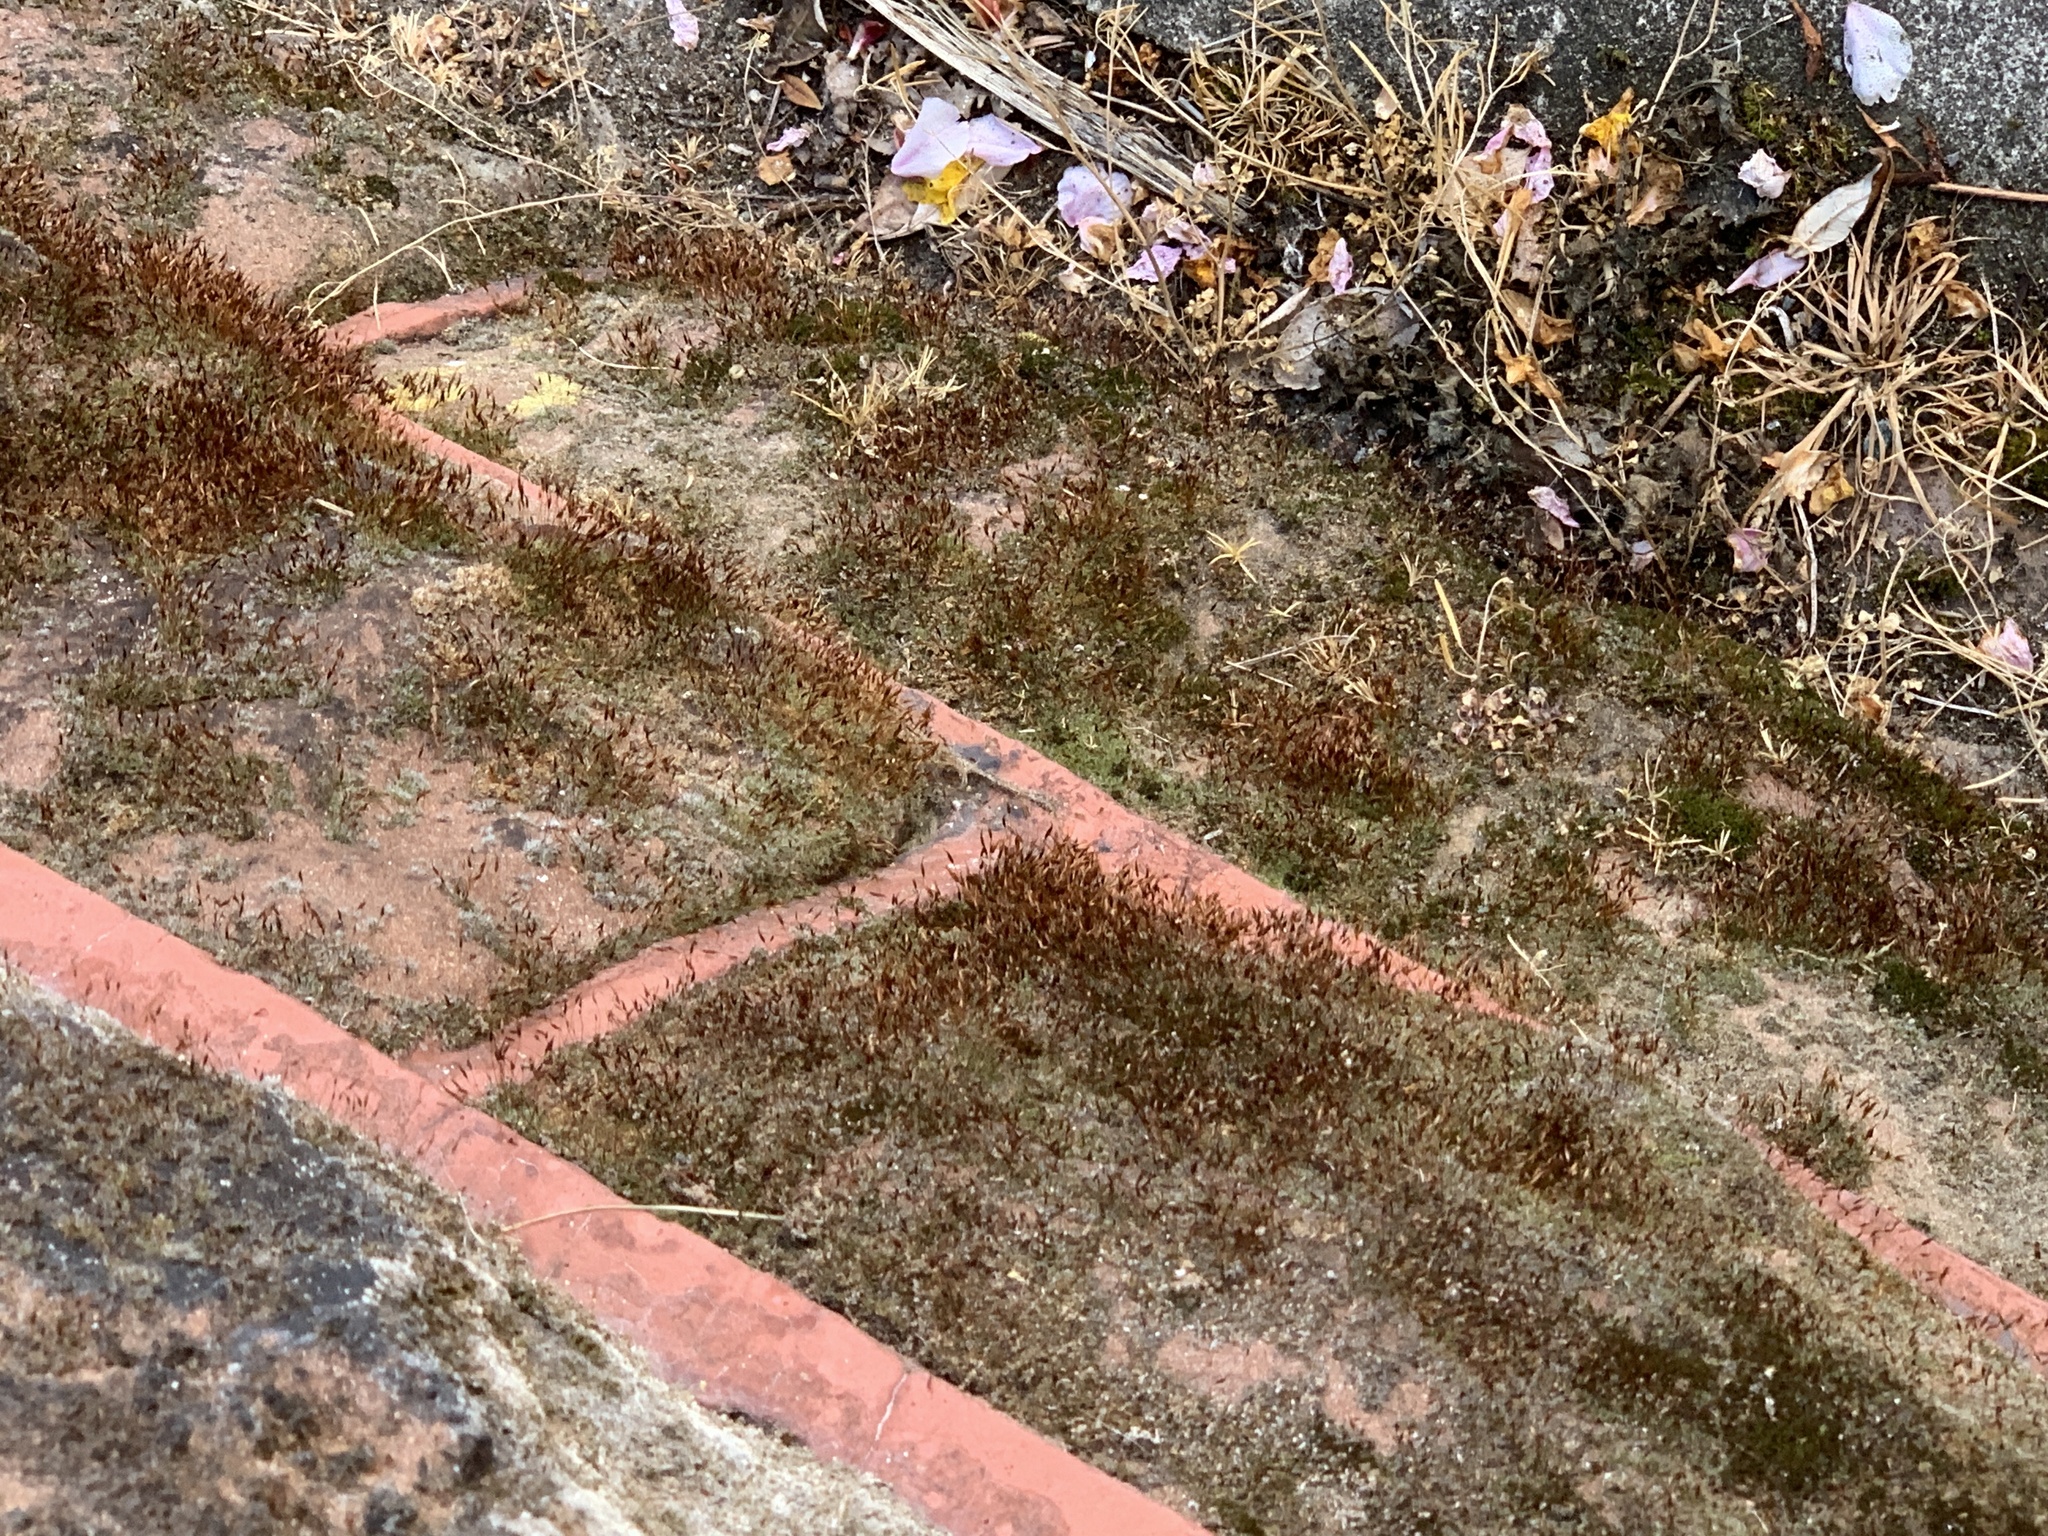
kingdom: Plantae
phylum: Bryophyta
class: Bryopsida
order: Pottiales
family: Pottiaceae
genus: Tortula
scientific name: Tortula muralis
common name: Wall screw-moss
